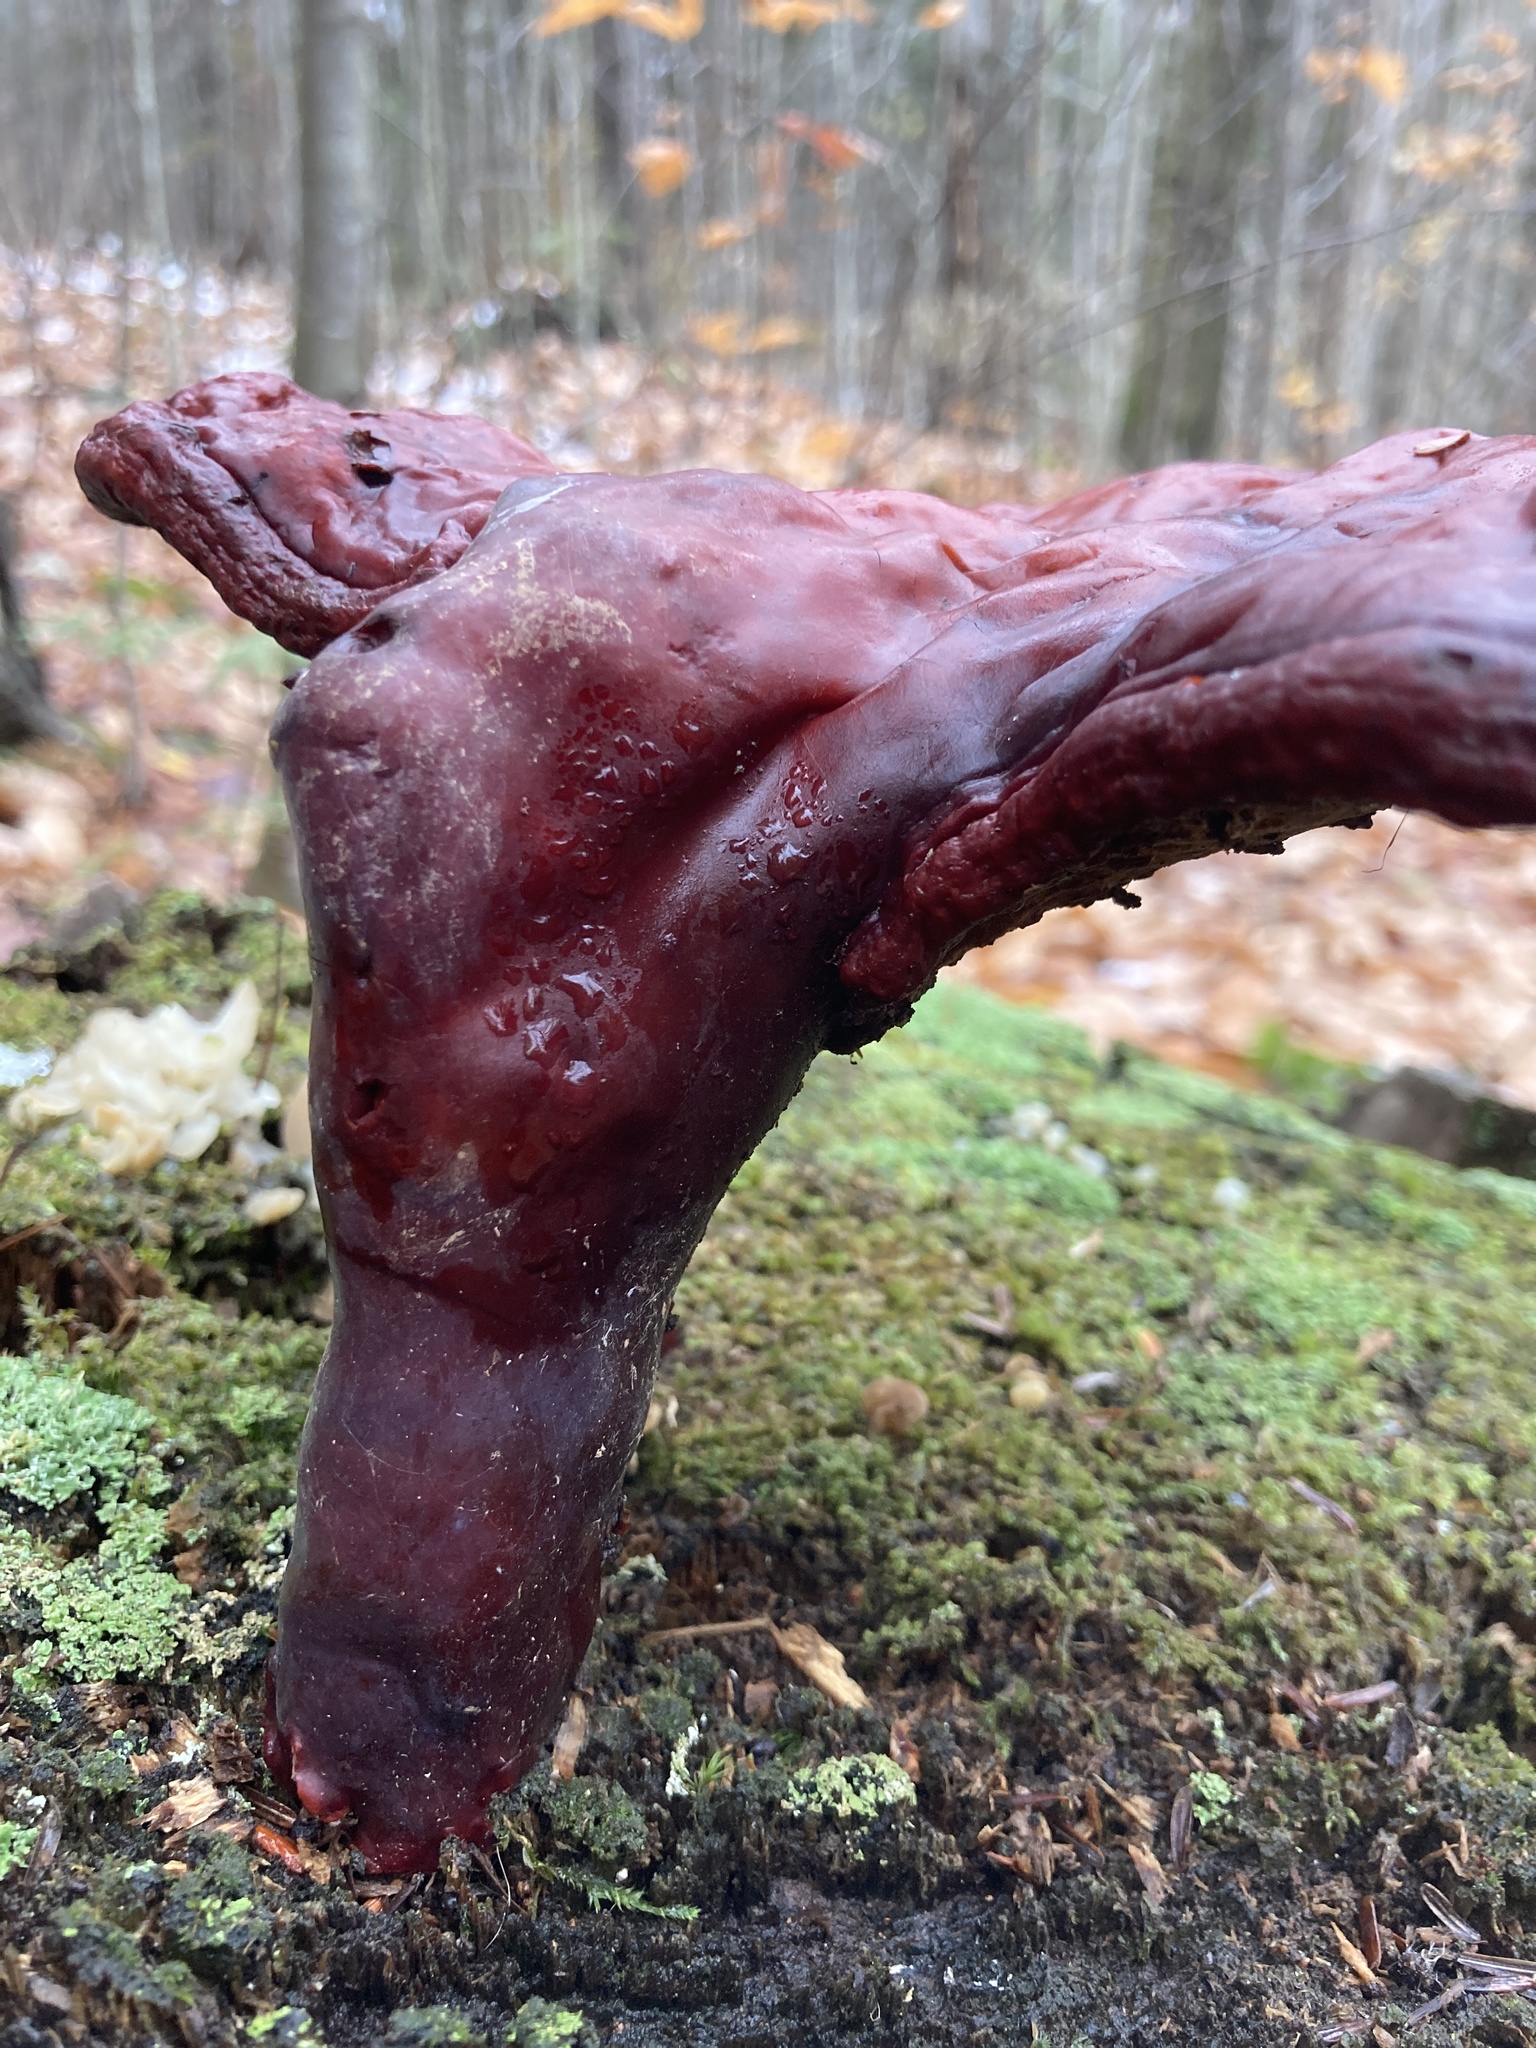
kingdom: Fungi
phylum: Basidiomycota
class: Agaricomycetes
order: Polyporales
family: Polyporaceae
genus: Ganoderma
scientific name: Ganoderma tsugae
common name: Hemlock varnish shelf
